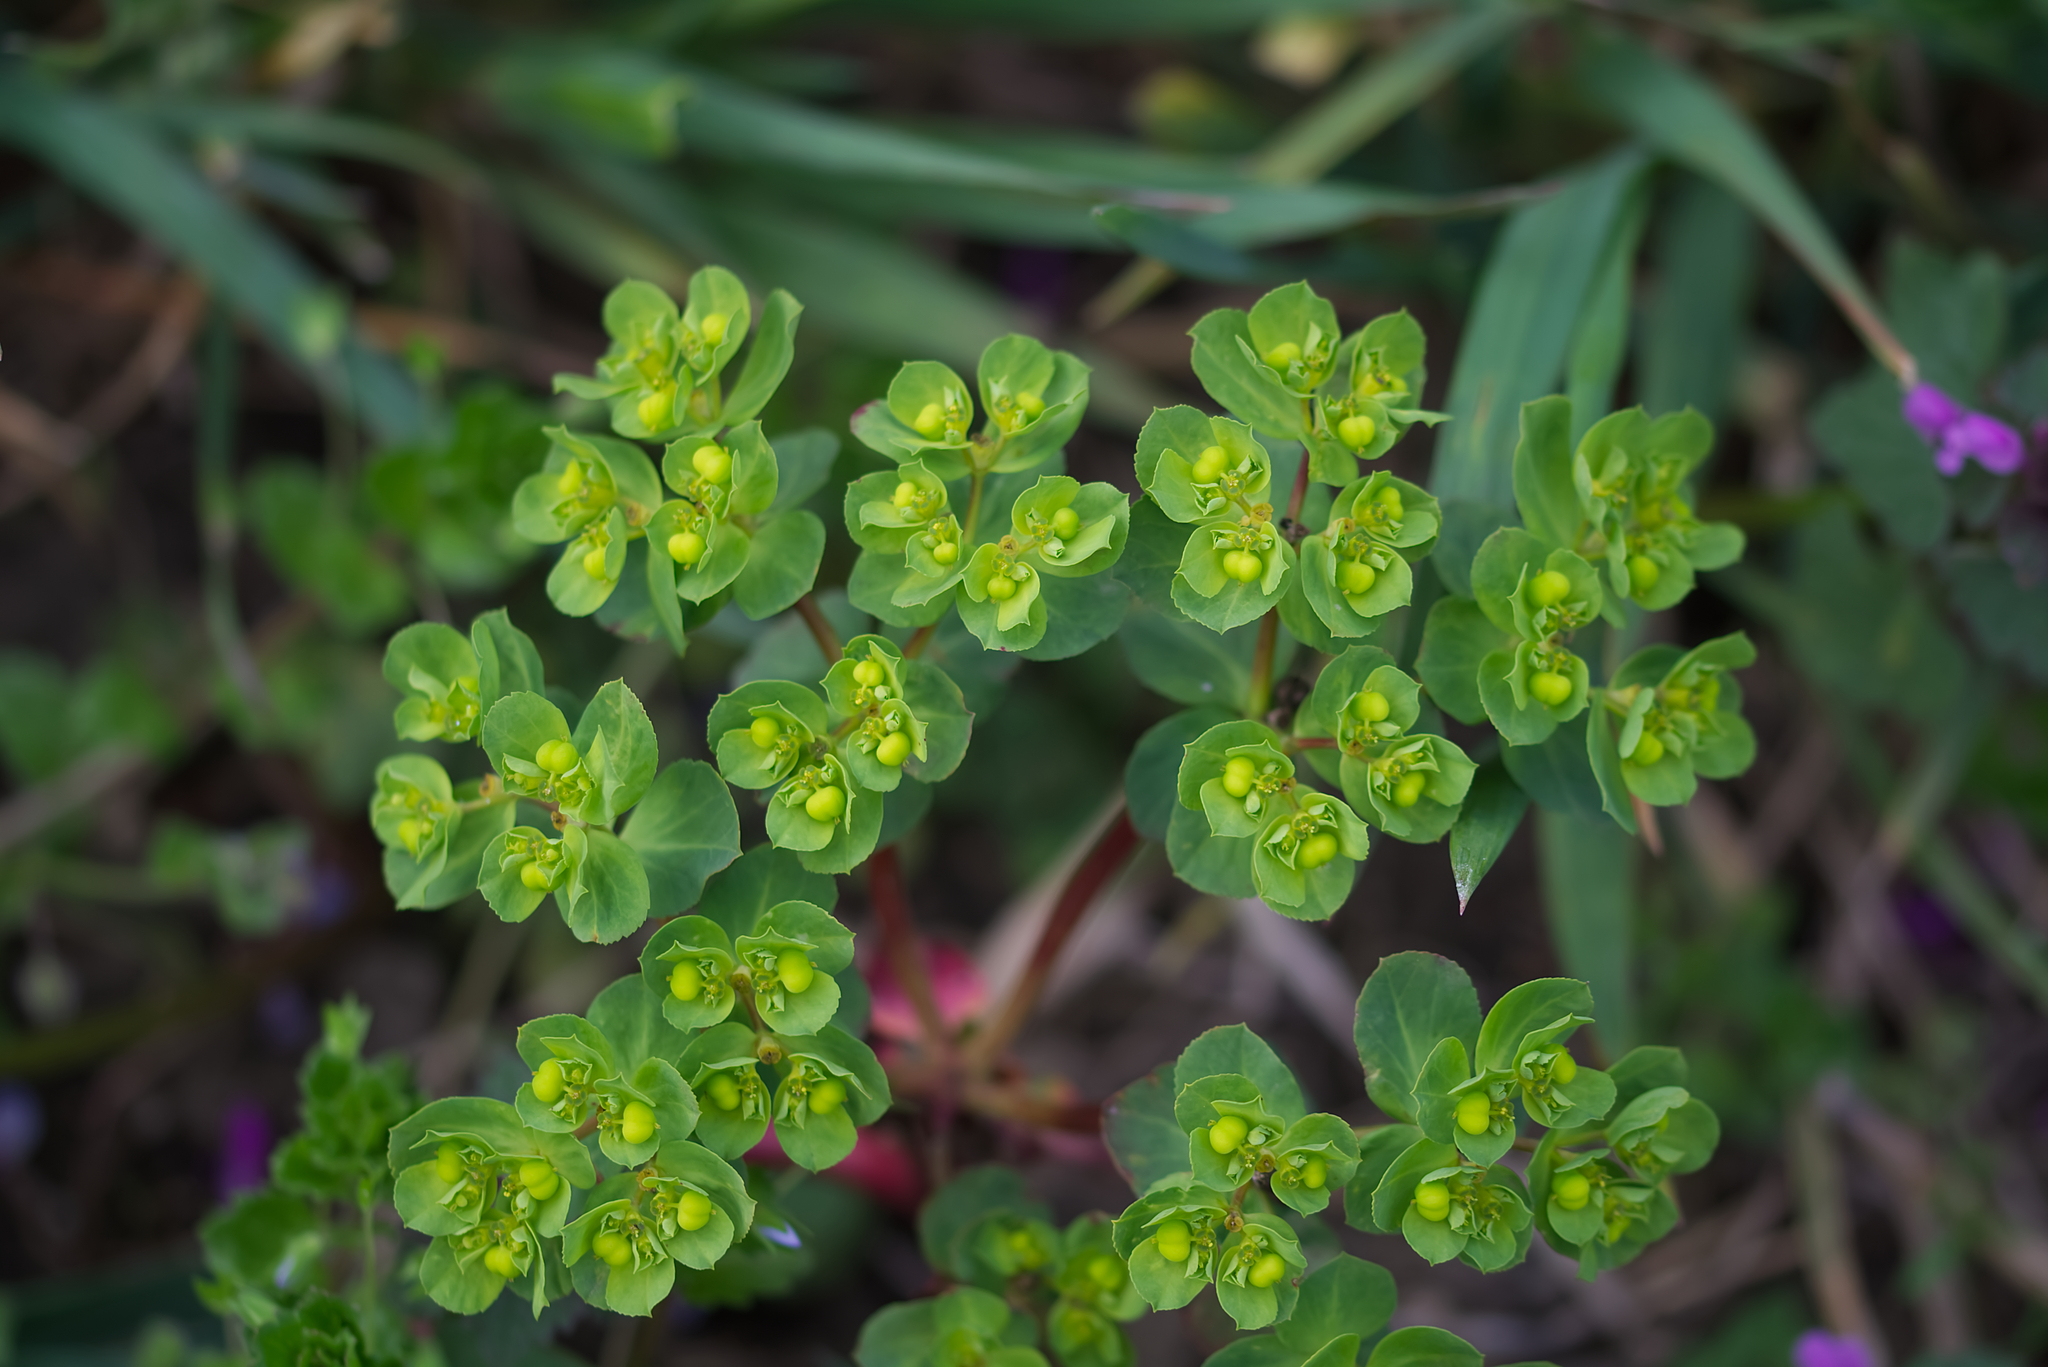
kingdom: Plantae
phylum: Tracheophyta
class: Magnoliopsida
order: Malpighiales
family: Euphorbiaceae
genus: Euphorbia
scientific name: Euphorbia helioscopia
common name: Sun spurge
